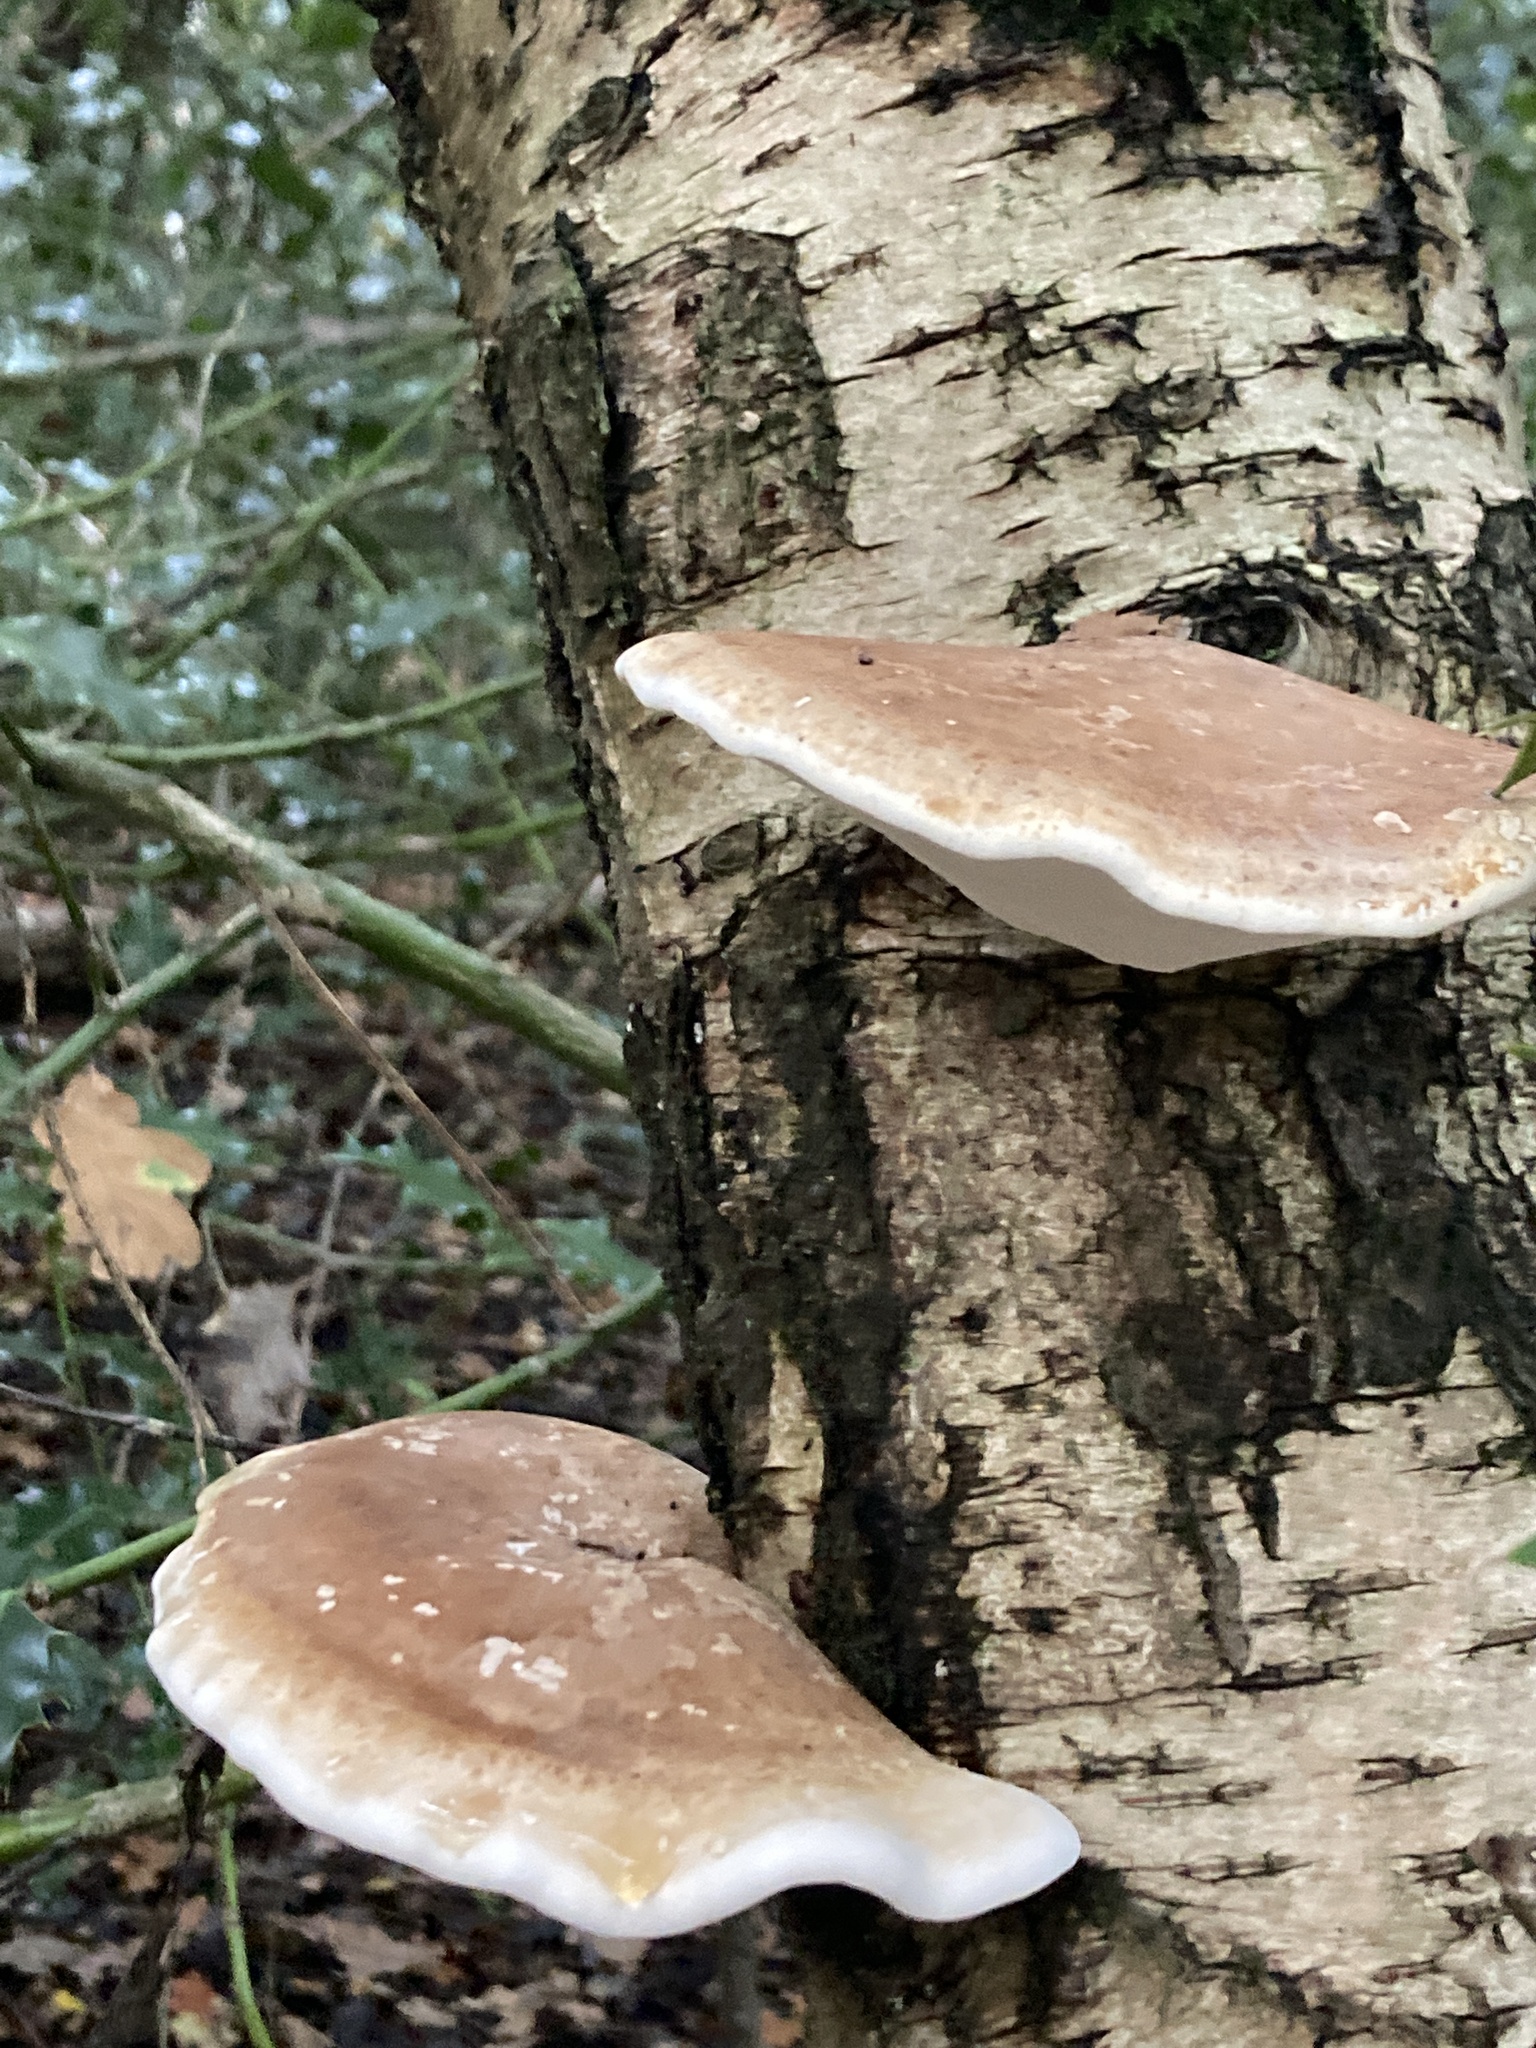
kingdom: Fungi
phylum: Basidiomycota
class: Agaricomycetes
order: Polyporales
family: Fomitopsidaceae
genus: Fomitopsis
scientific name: Fomitopsis betulina
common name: Birch polypore
